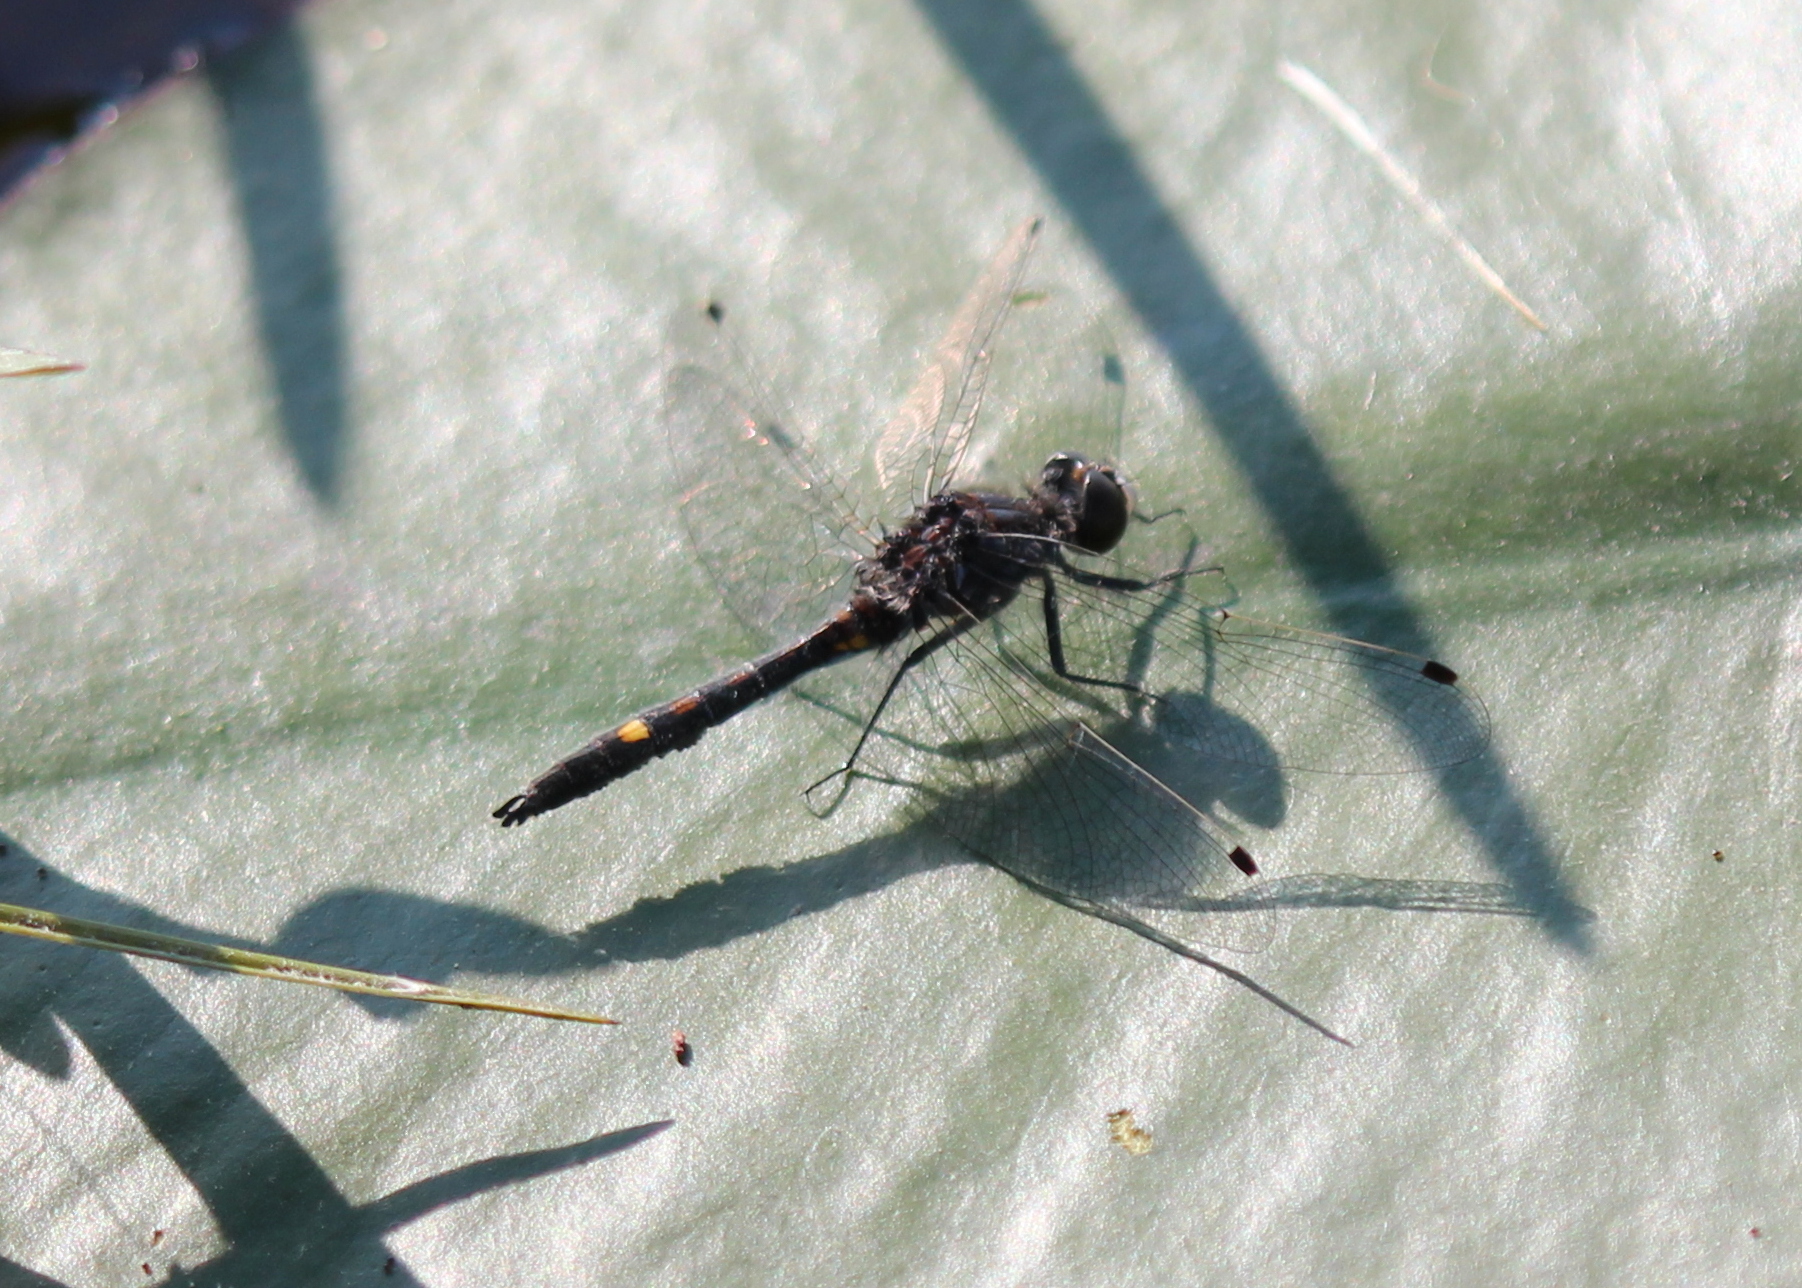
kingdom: Animalia
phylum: Arthropoda
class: Insecta
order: Odonata
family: Libellulidae
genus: Leucorrhinia
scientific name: Leucorrhinia intacta
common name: Dot-tailed whiteface
